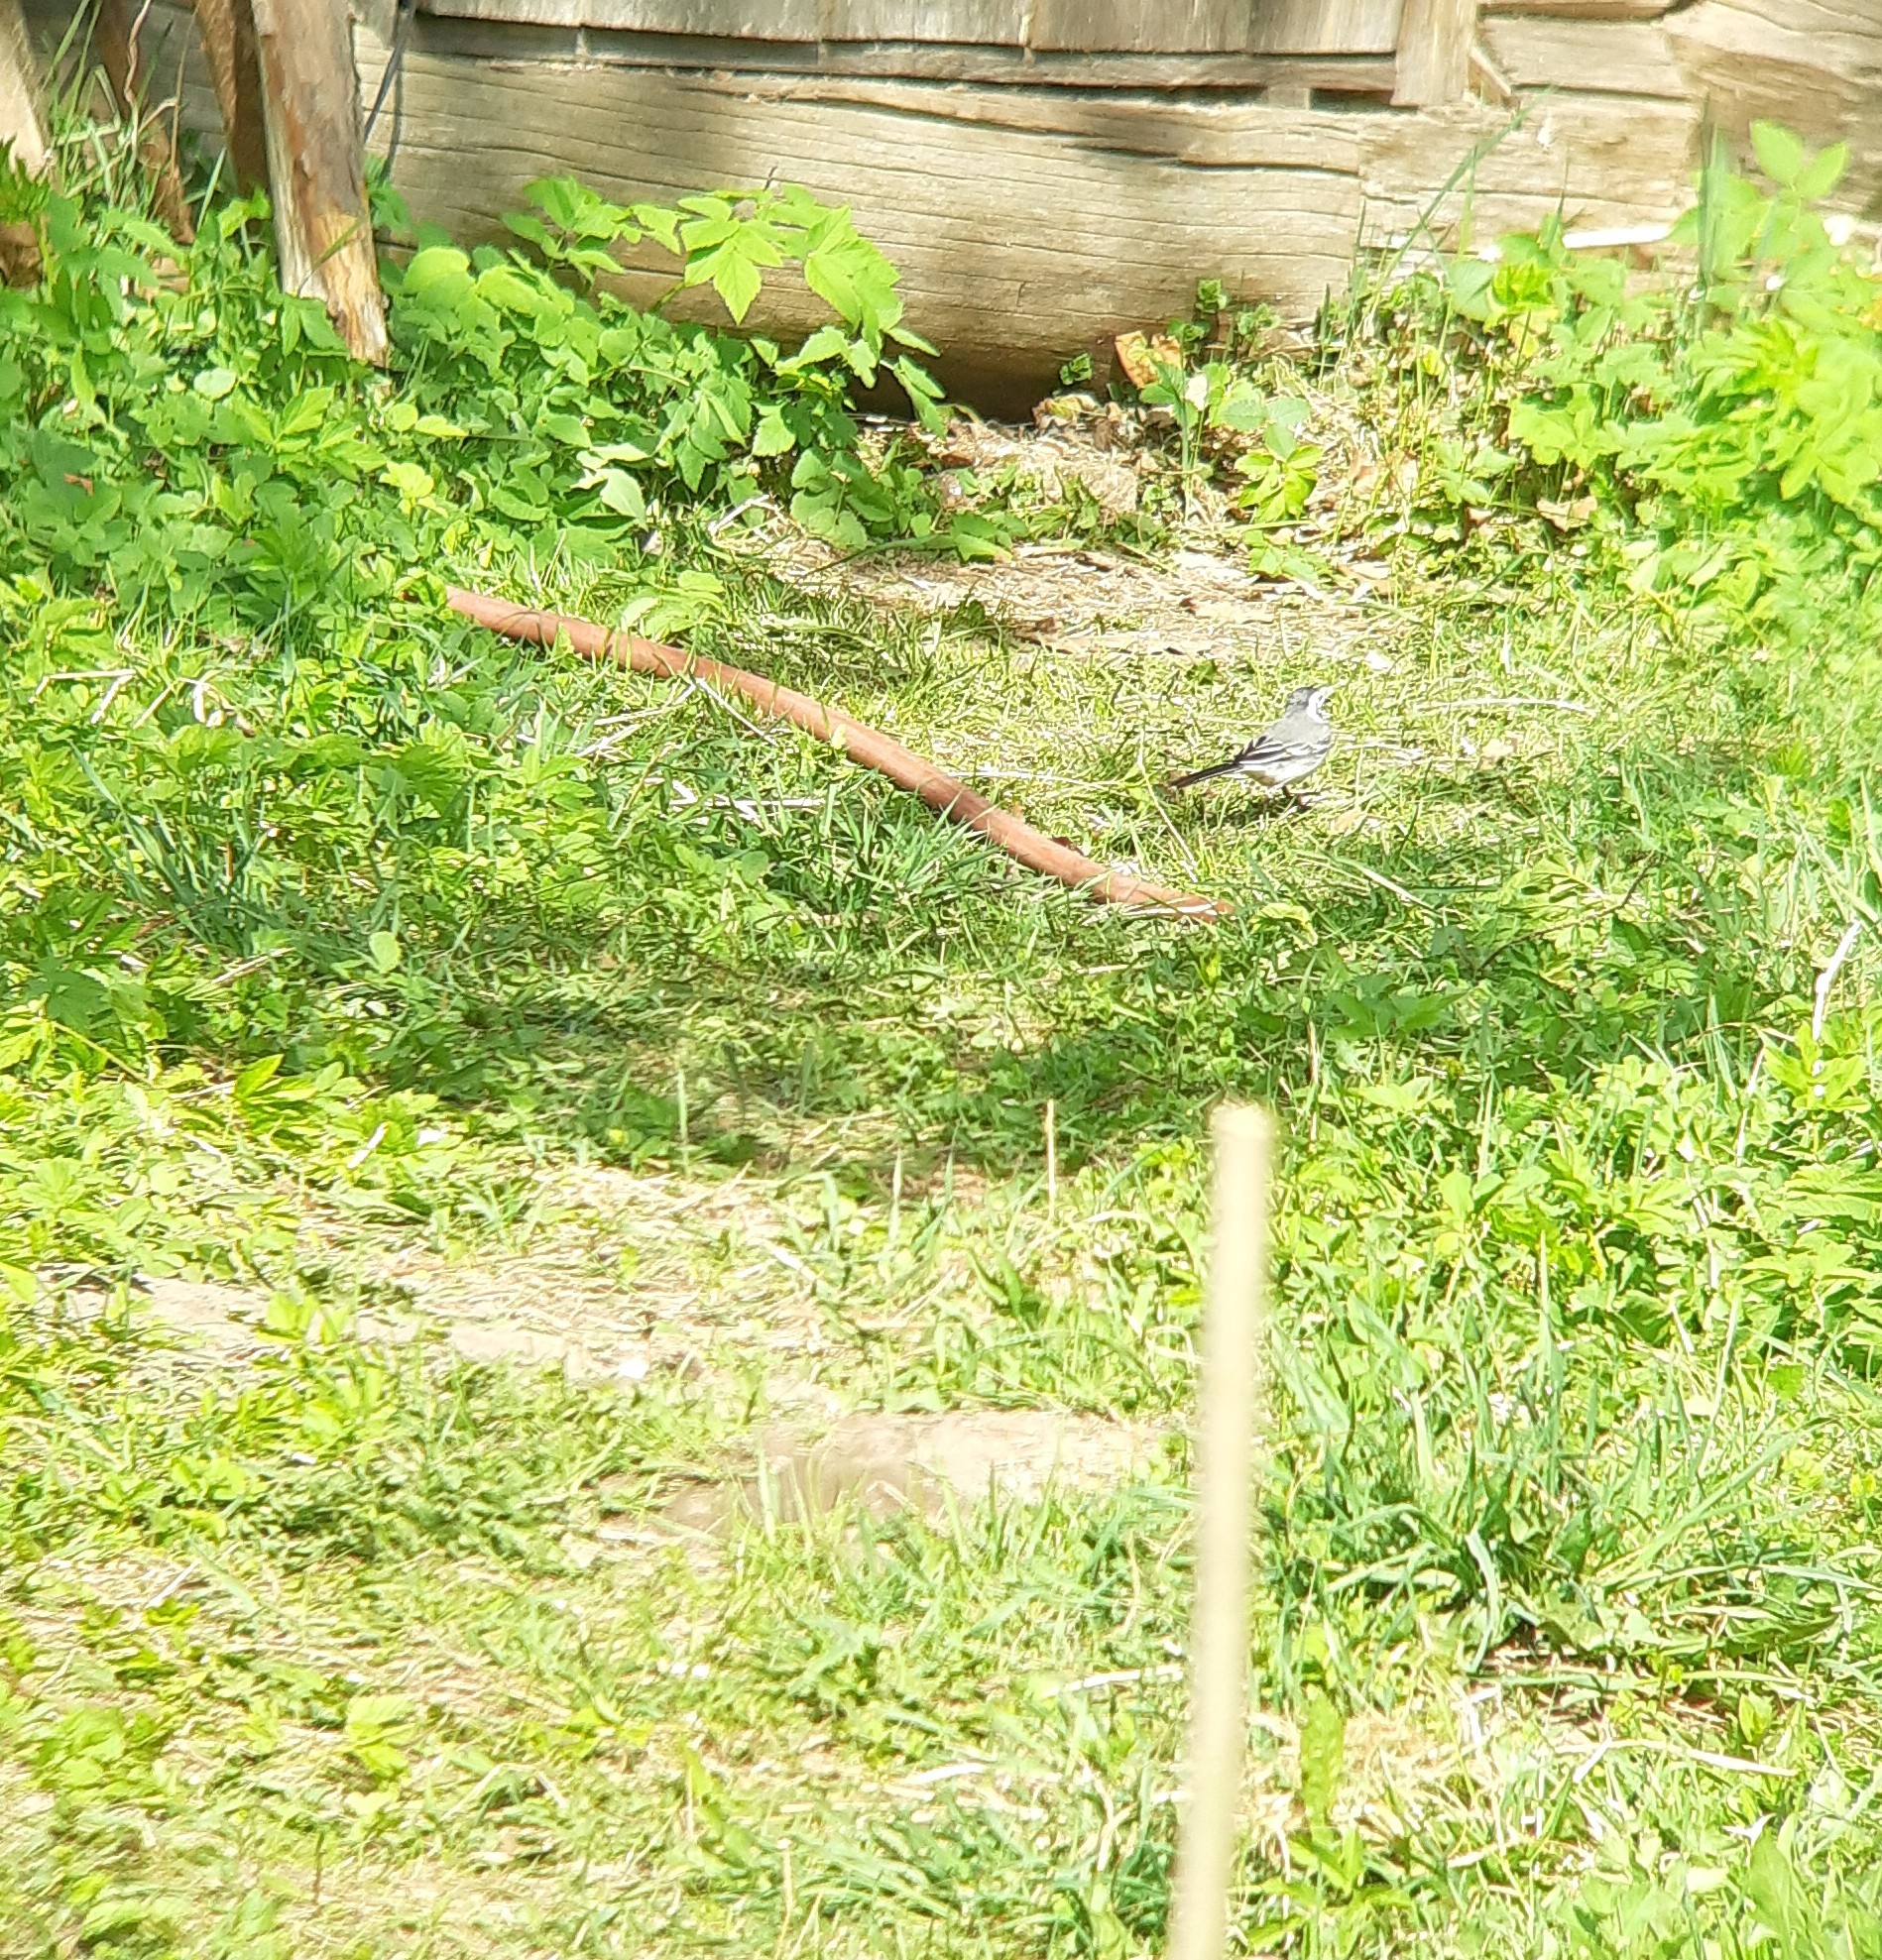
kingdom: Animalia
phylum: Chordata
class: Aves
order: Passeriformes
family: Motacillidae
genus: Motacilla
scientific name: Motacilla alba
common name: White wagtail
